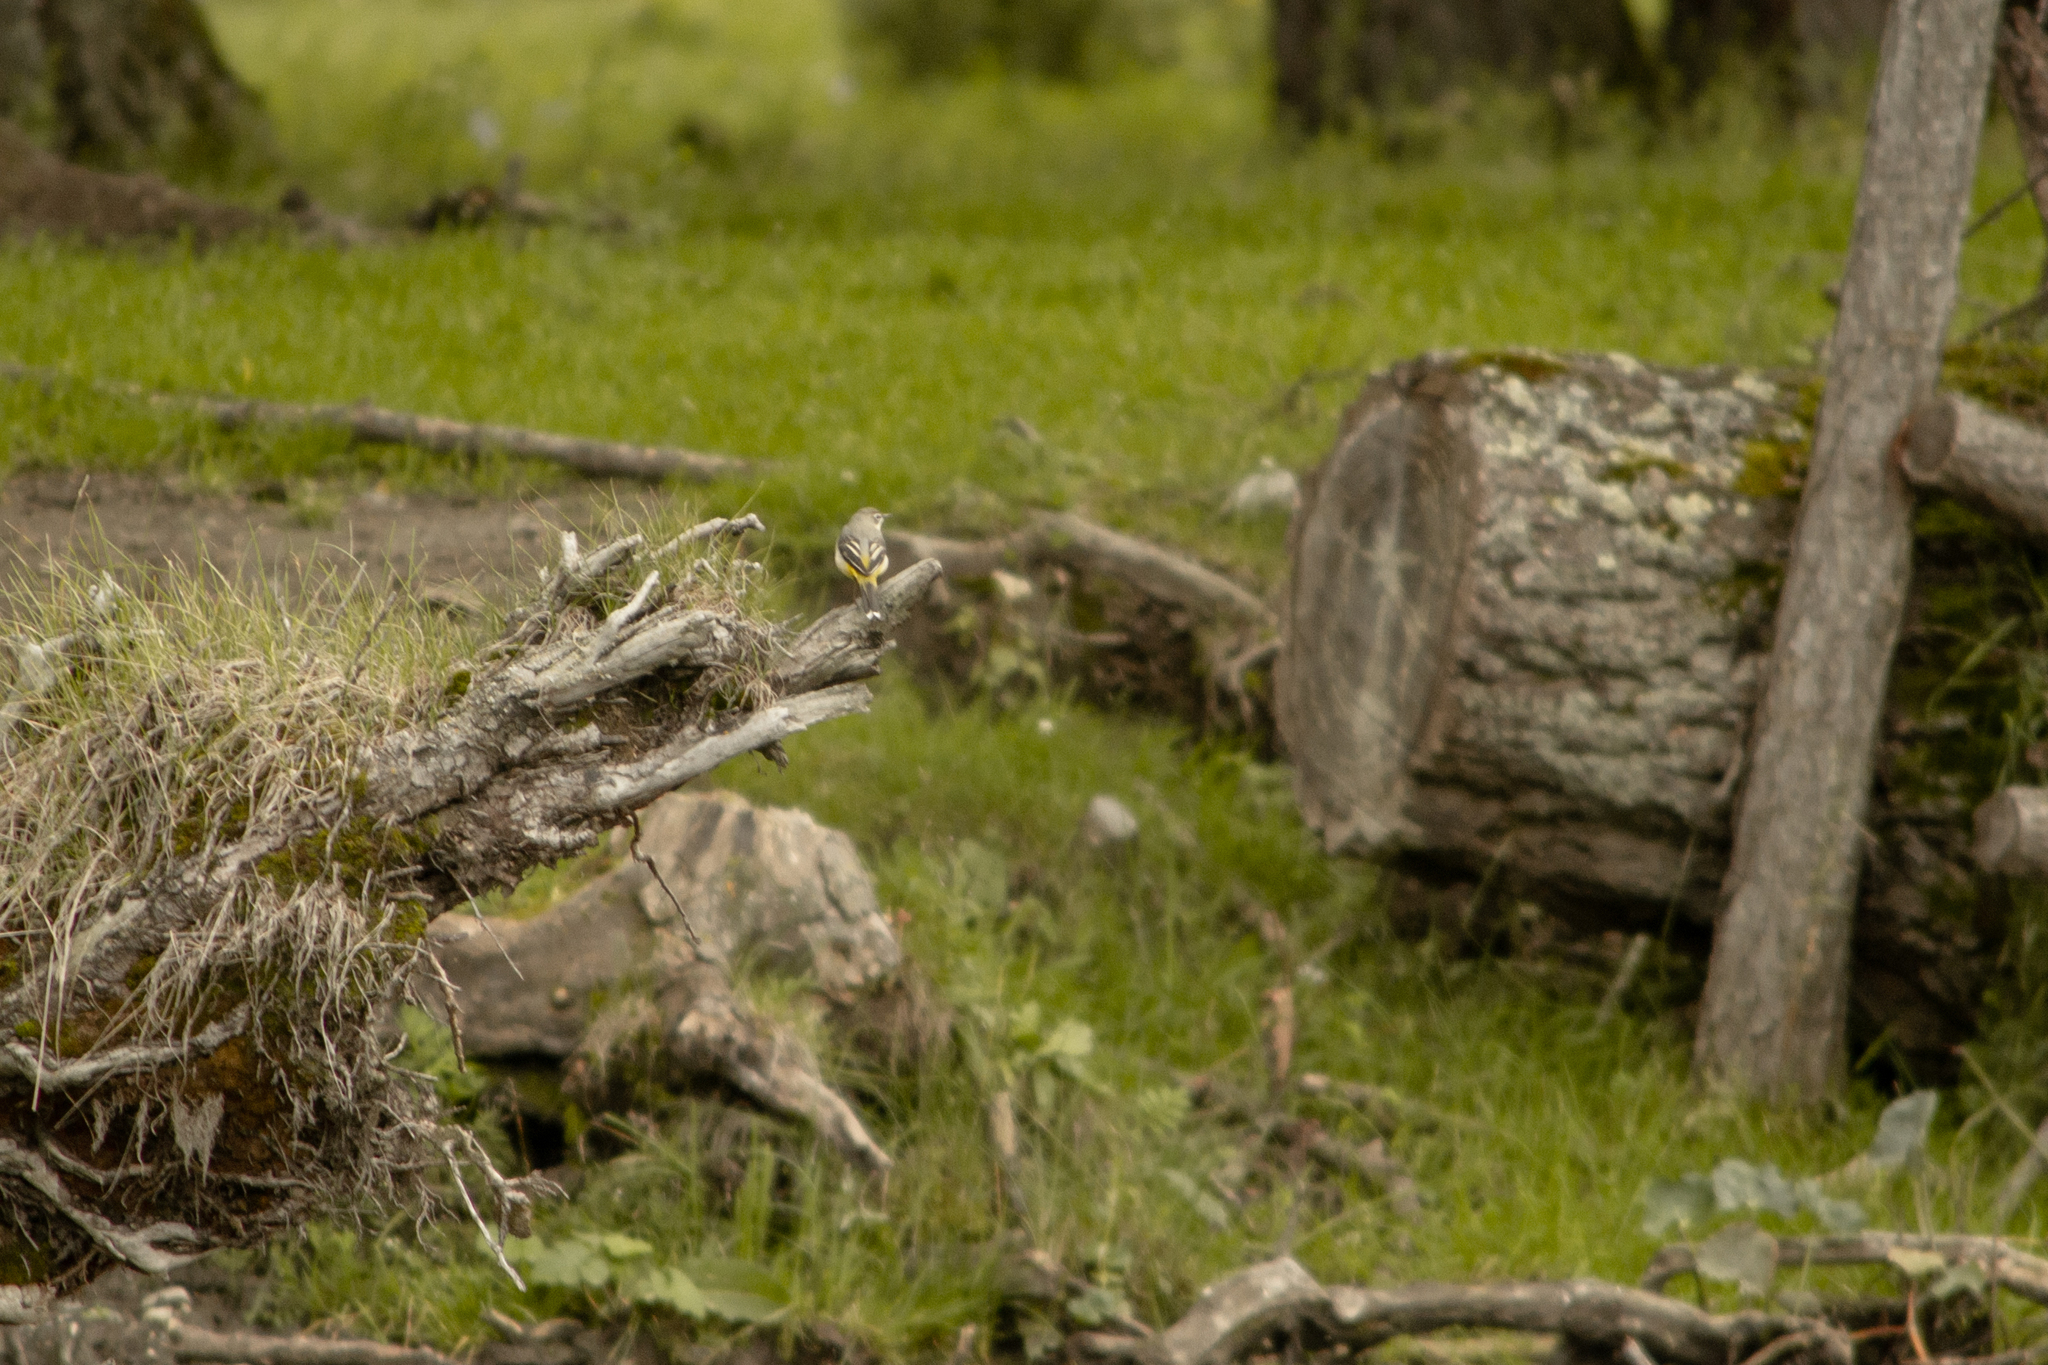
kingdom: Animalia
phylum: Chordata
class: Aves
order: Passeriformes
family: Motacillidae
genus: Motacilla
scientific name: Motacilla cinerea
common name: Grey wagtail
